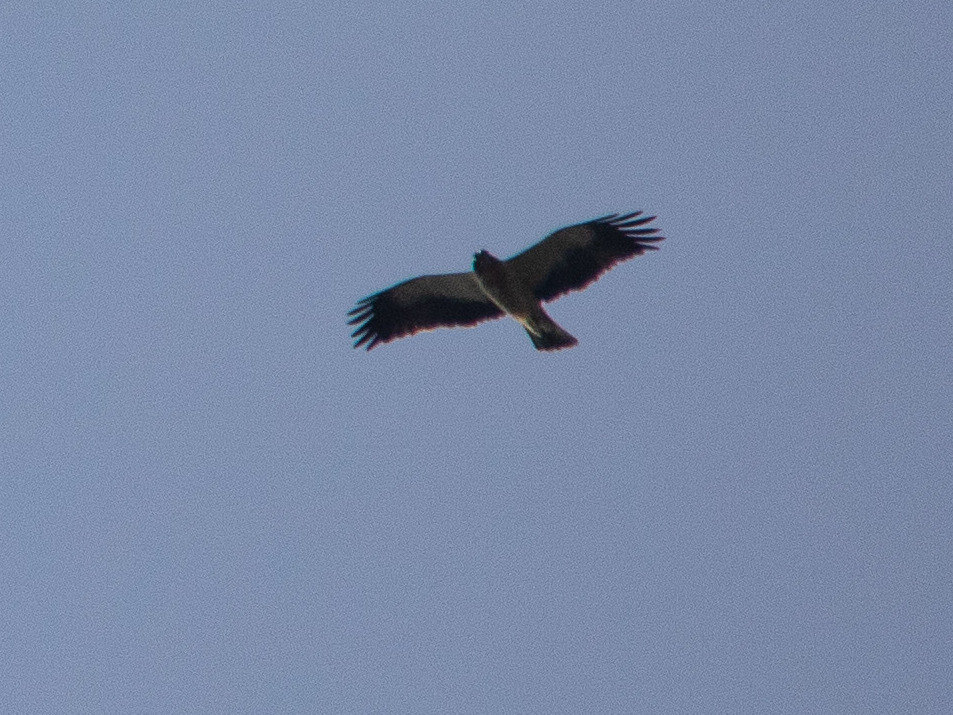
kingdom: Animalia
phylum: Chordata
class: Aves
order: Accipitriformes
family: Accipitridae
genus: Hieraaetus
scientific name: Hieraaetus pennatus
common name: Booted eagle
